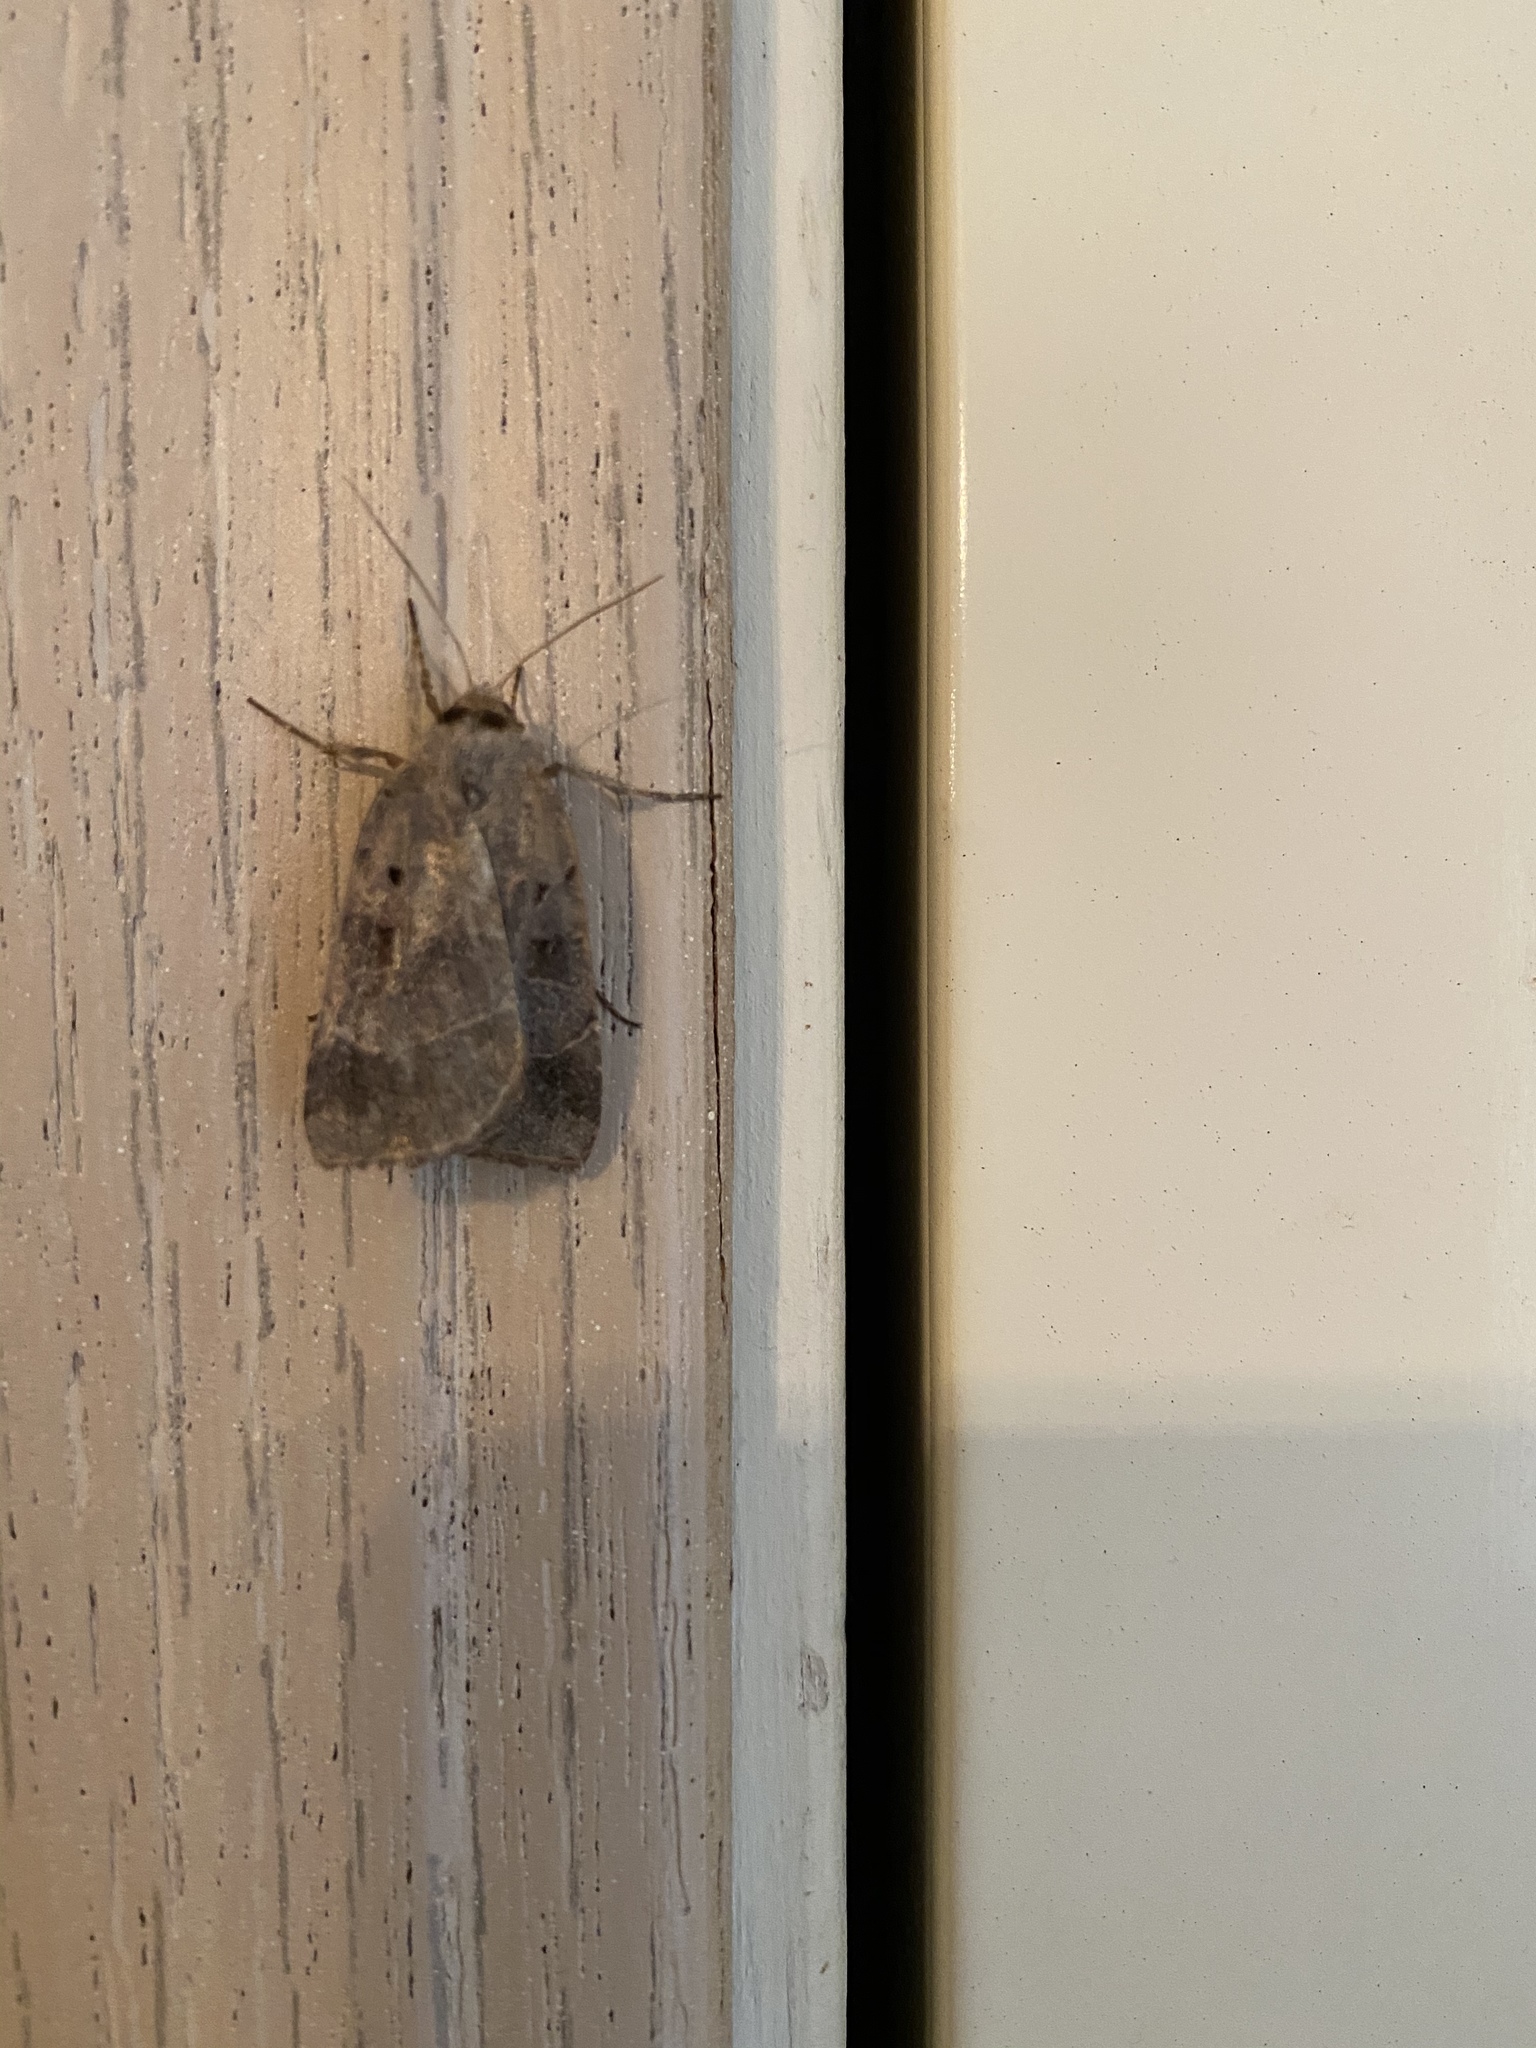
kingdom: Animalia
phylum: Arthropoda
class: Insecta
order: Lepidoptera
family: Noctuidae
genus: Agnorisma
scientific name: Agnorisma badinodis
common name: Pale-banded dart
